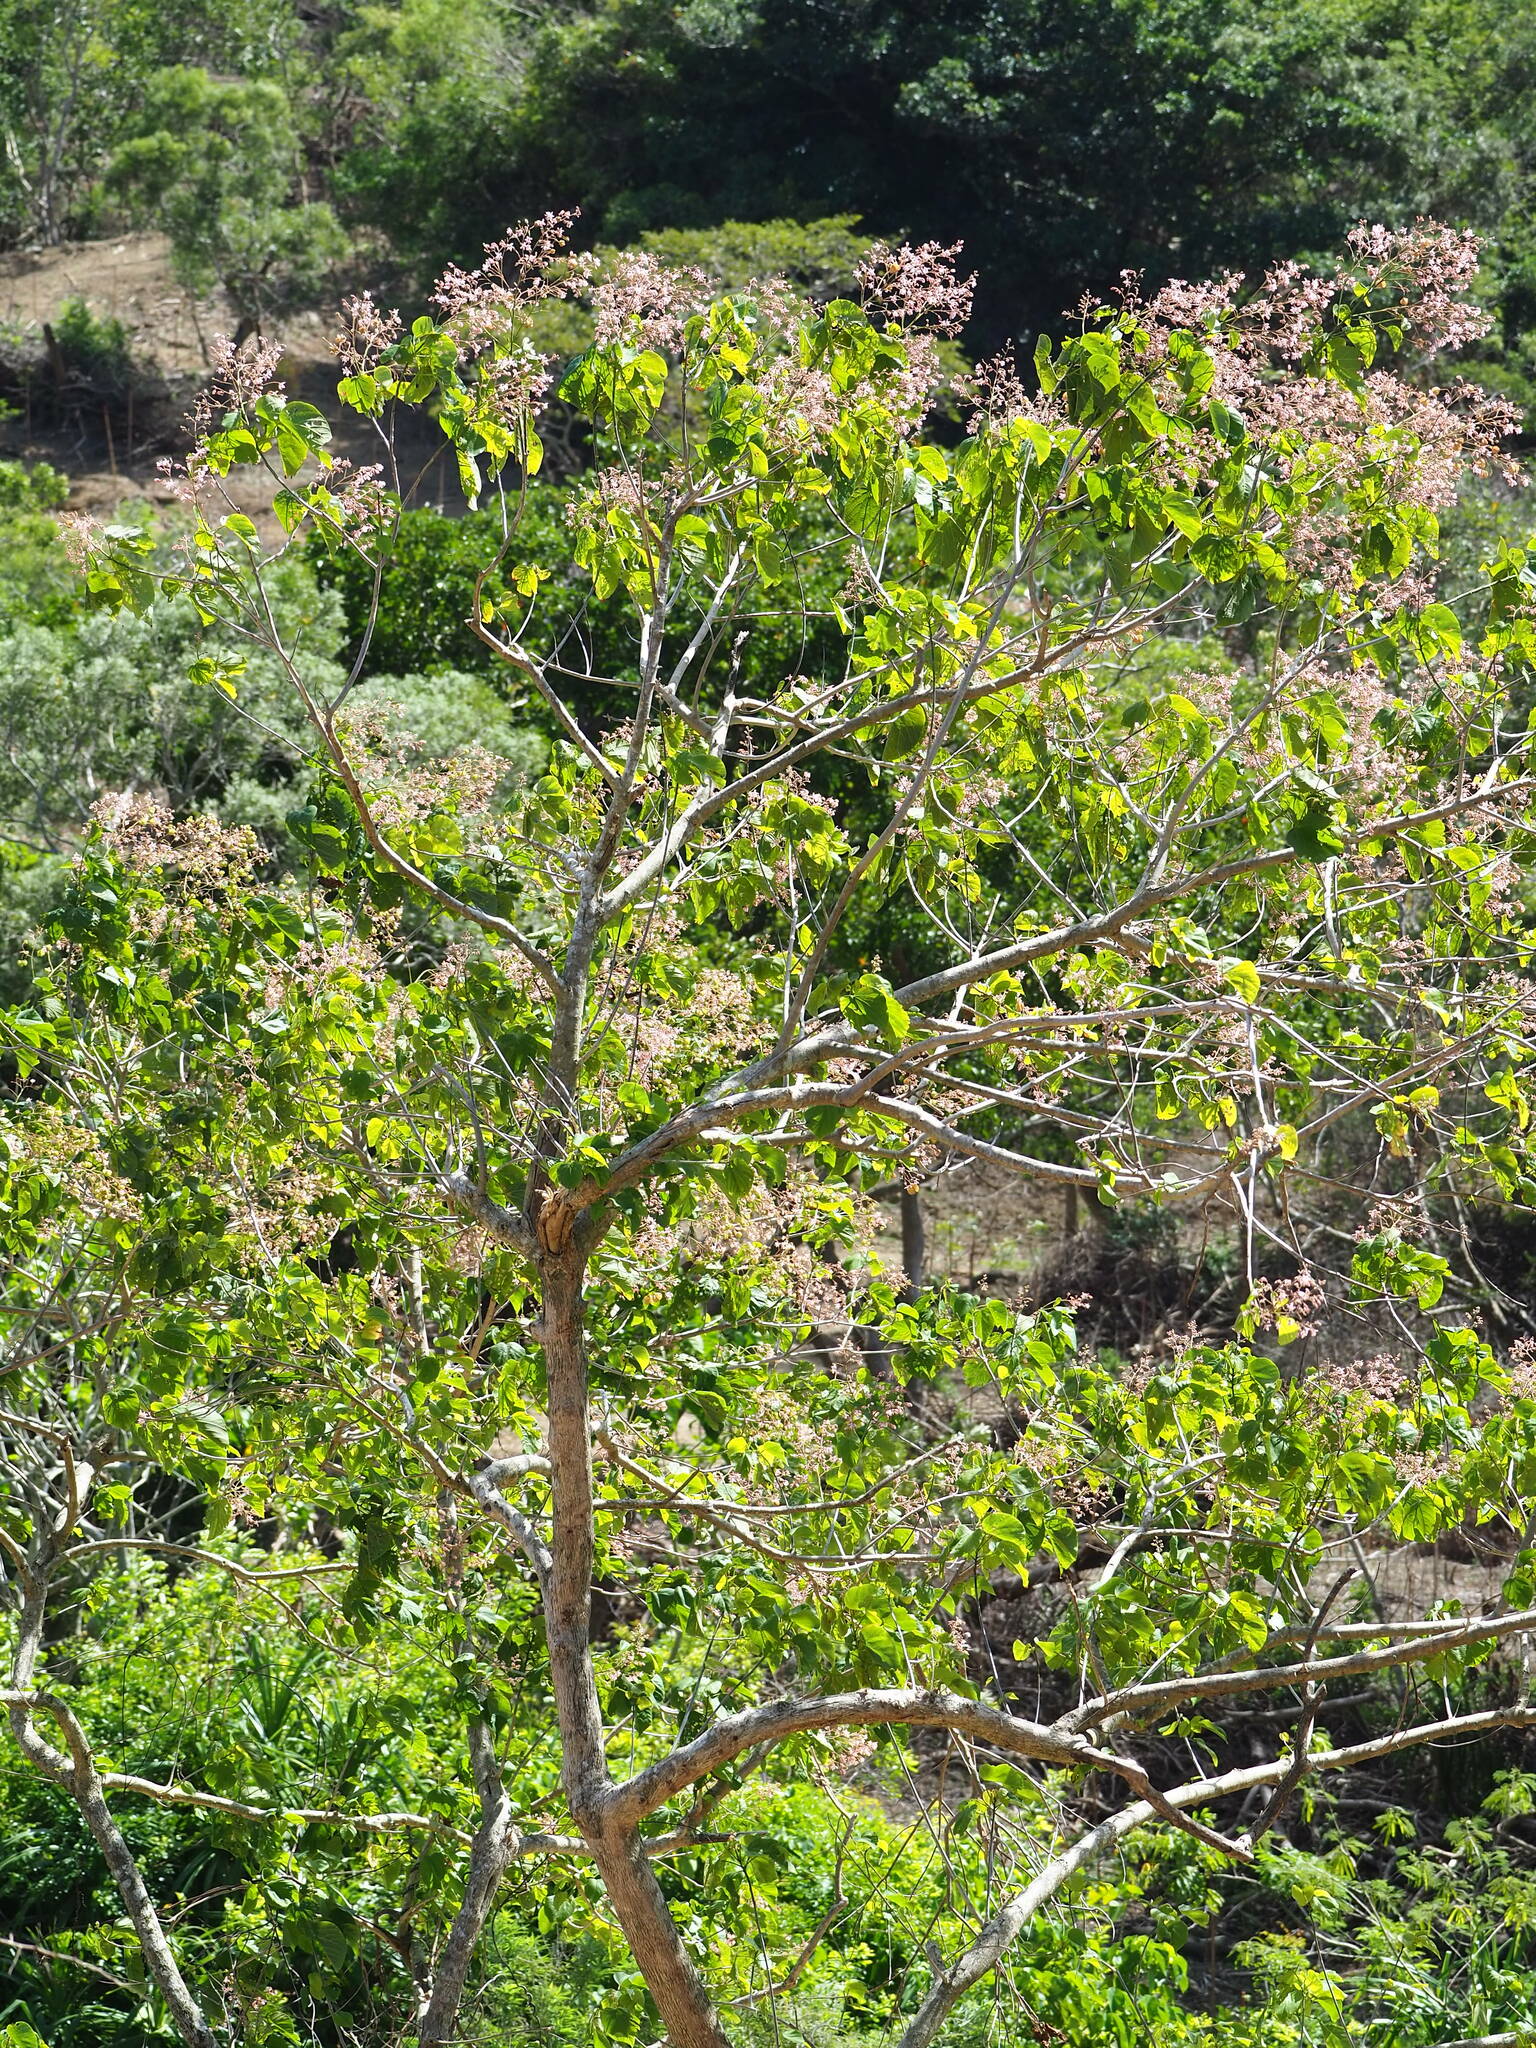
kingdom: Plantae
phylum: Tracheophyta
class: Magnoliopsida
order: Malvales
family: Malvaceae
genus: Kleinhovia
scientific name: Kleinhovia hospita
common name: Guest-tree
